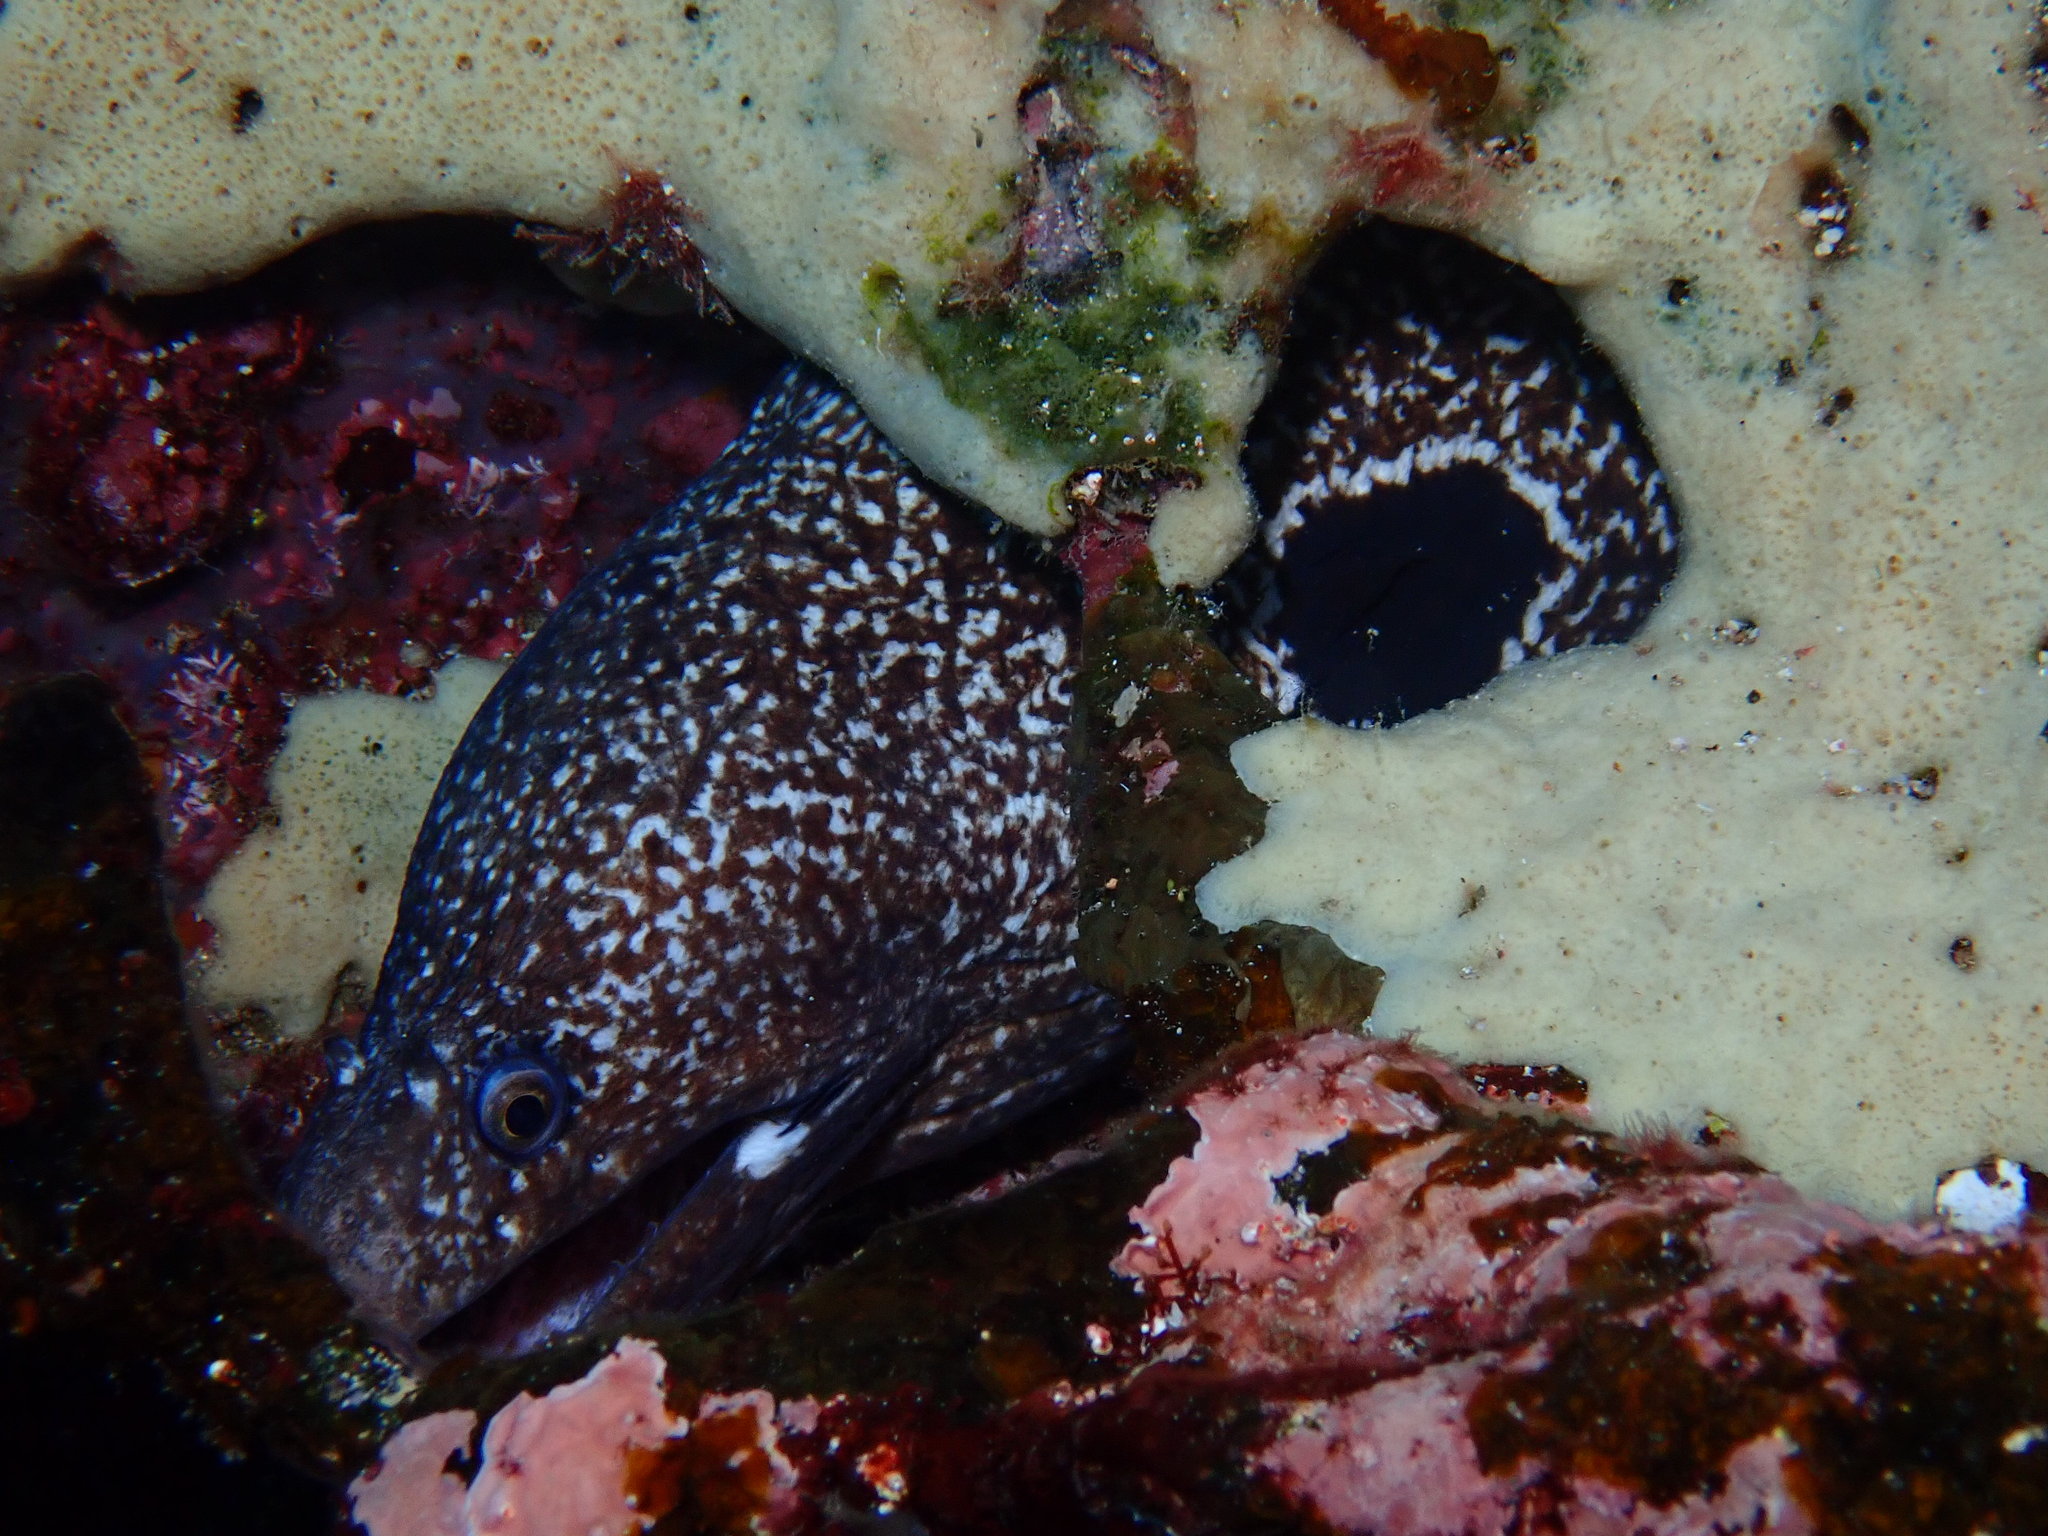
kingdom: Animalia
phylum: Chordata
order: Anguilliformes
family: Muraenidae
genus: Muraena
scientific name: Muraena clepsydra
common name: Hourglass moray
